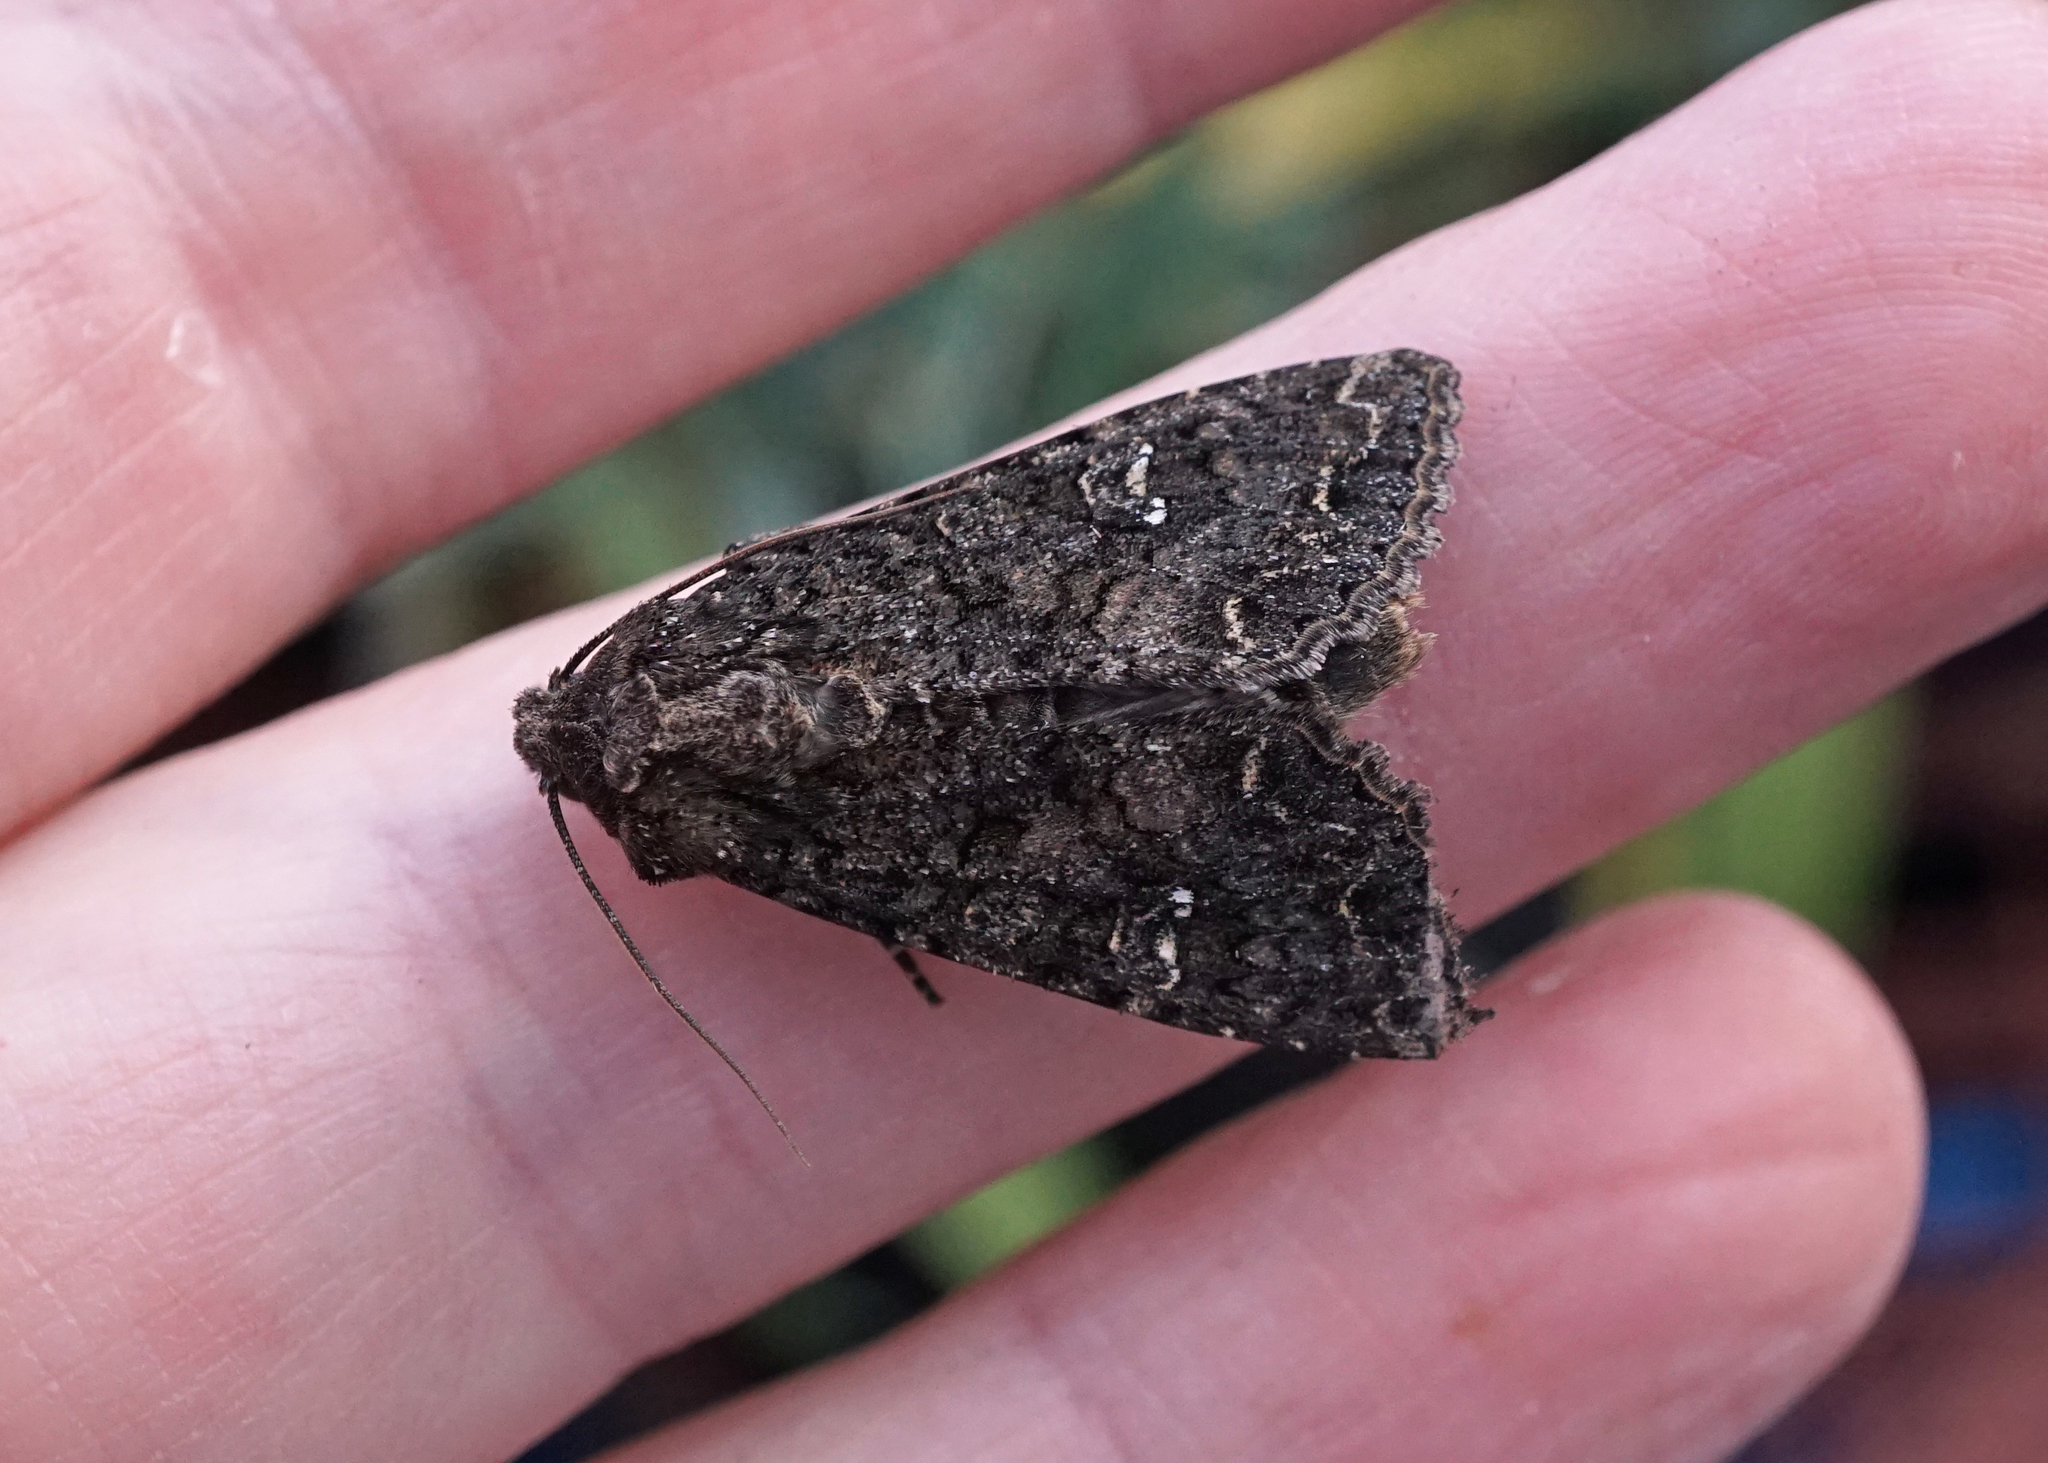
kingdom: Animalia
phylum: Arthropoda
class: Insecta
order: Lepidoptera
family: Noctuidae
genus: Mamestra
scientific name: Mamestra brassicae
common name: Cabbage moth
